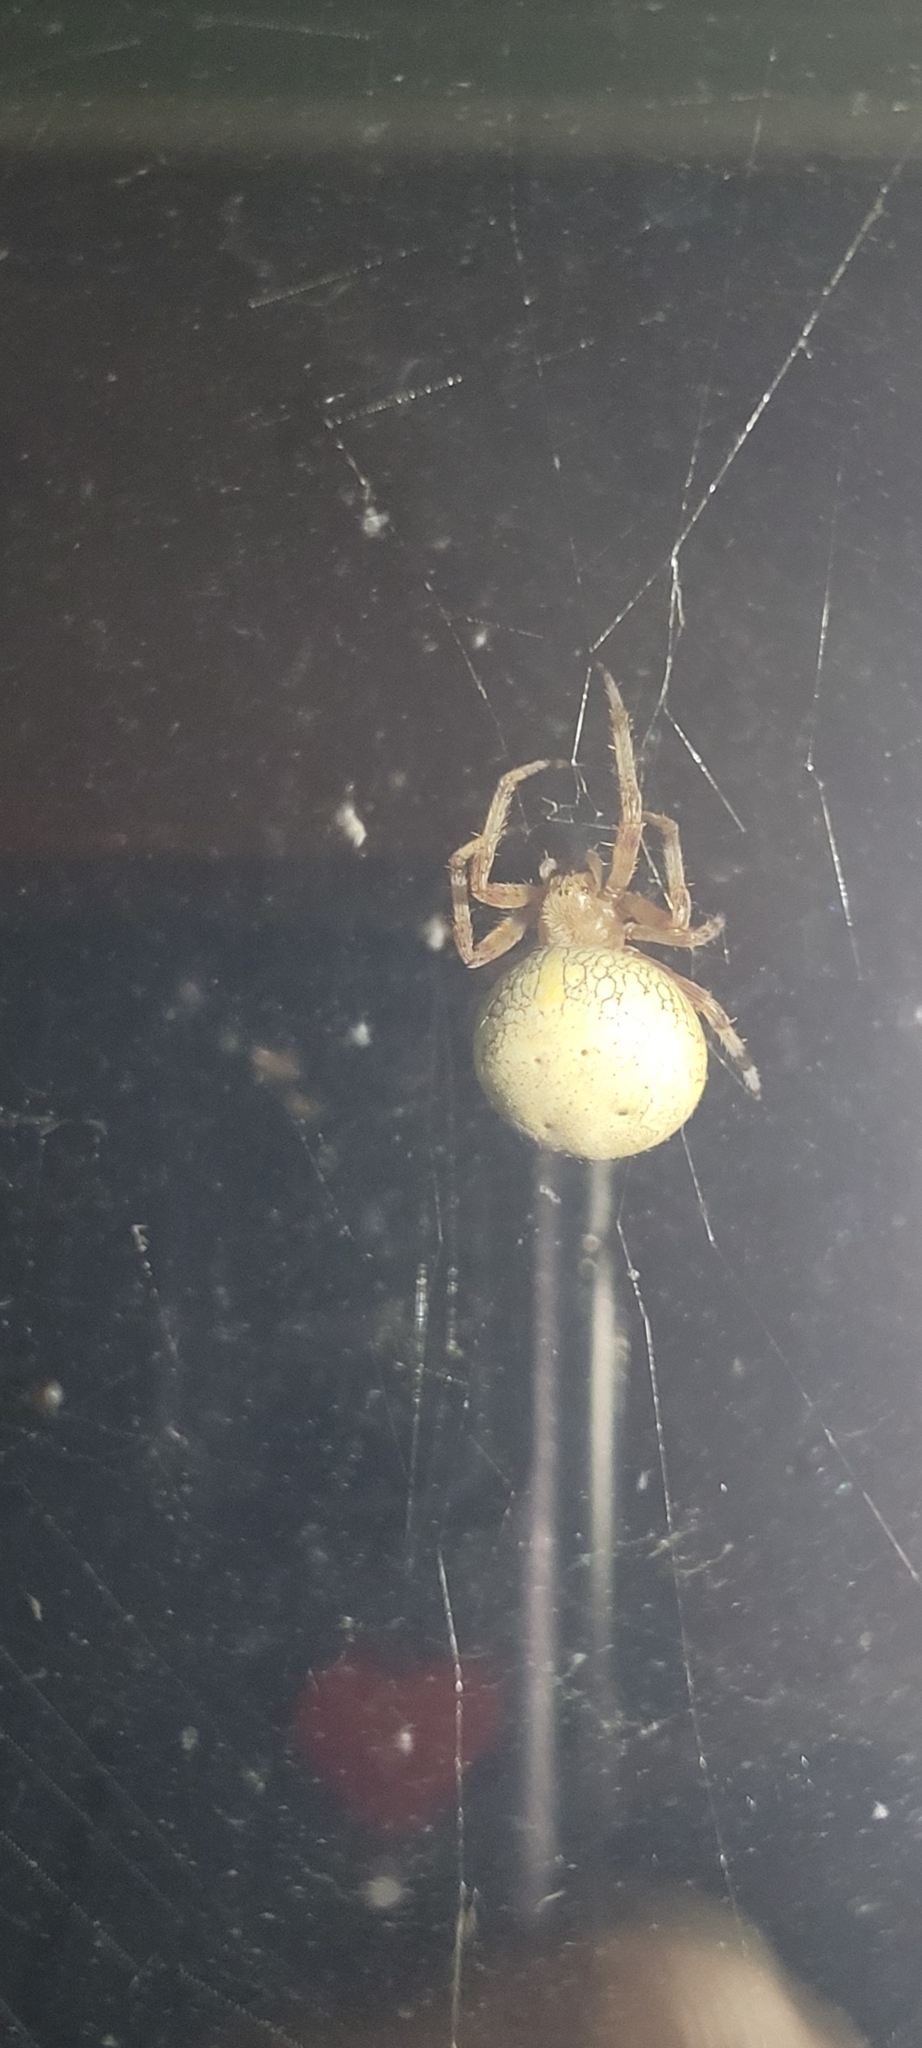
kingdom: Animalia
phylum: Arthropoda
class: Arachnida
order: Araneae
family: Araneidae
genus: Araneus
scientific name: Araneus marmoreus
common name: Marbled orbweaver
